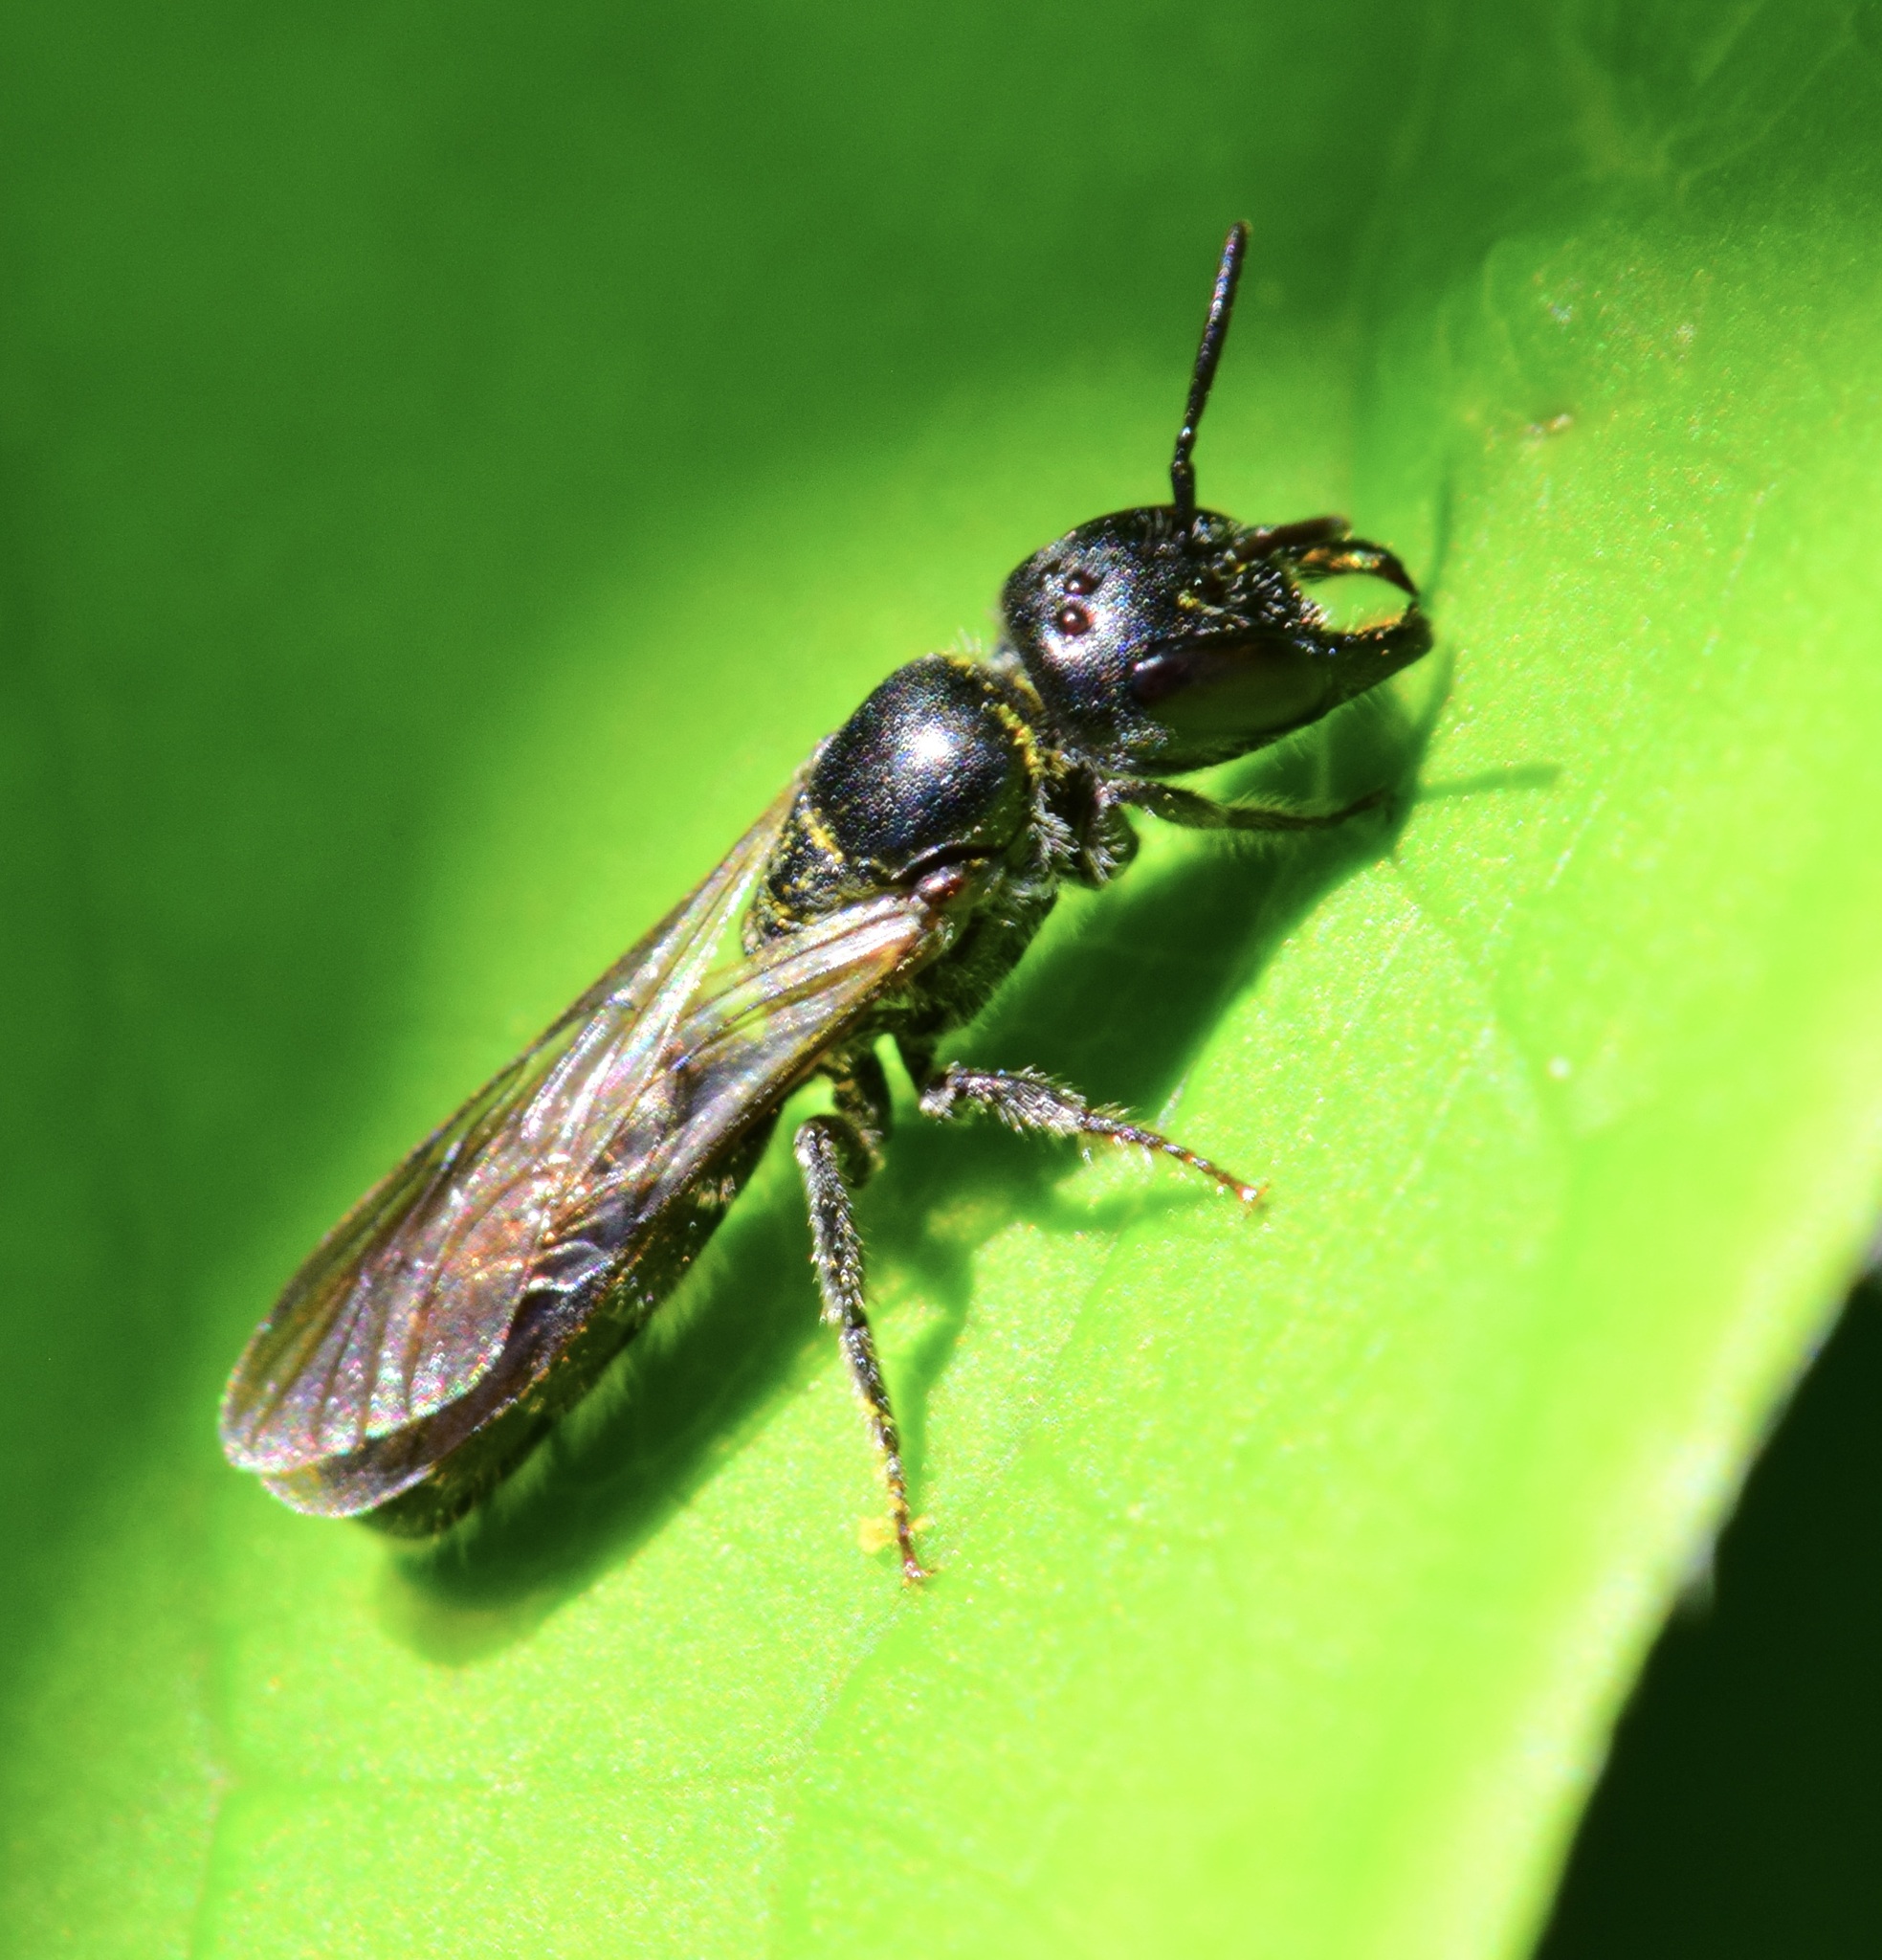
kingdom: Animalia
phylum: Arthropoda
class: Insecta
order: Hymenoptera
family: Megachilidae
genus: Chelostoma
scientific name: Chelostoma philadelphi
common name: Mock-orange scissor bee
